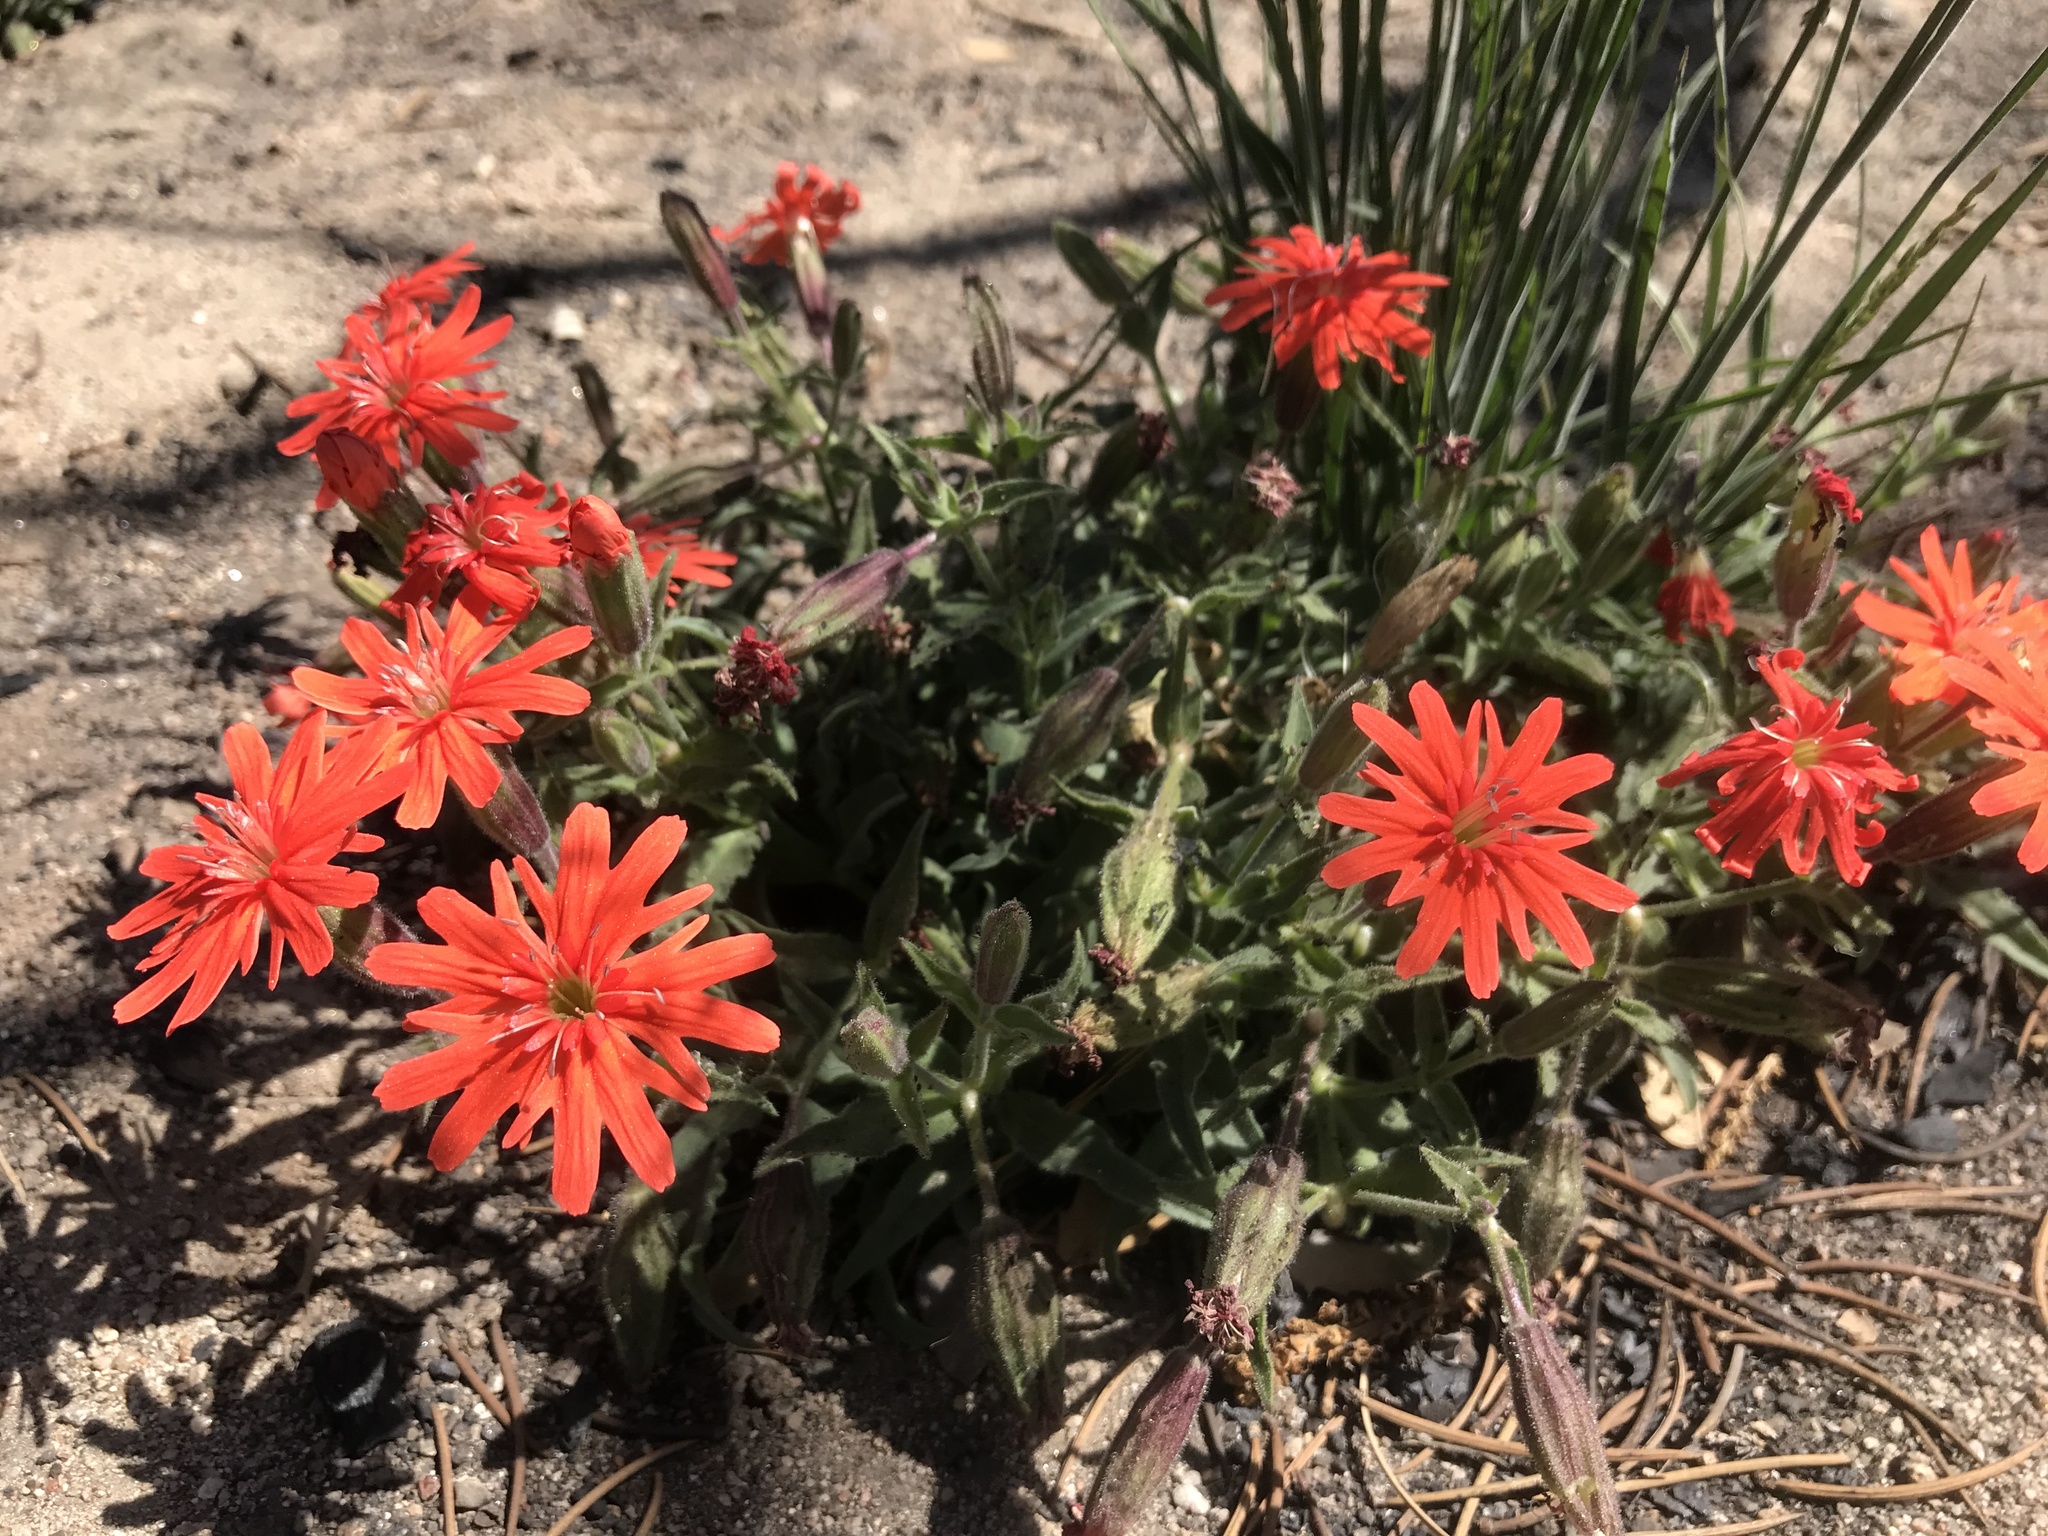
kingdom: Plantae
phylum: Tracheophyta
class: Magnoliopsida
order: Caryophyllales
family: Caryophyllaceae
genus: Silene
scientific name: Silene laciniata
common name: Indian-pink
